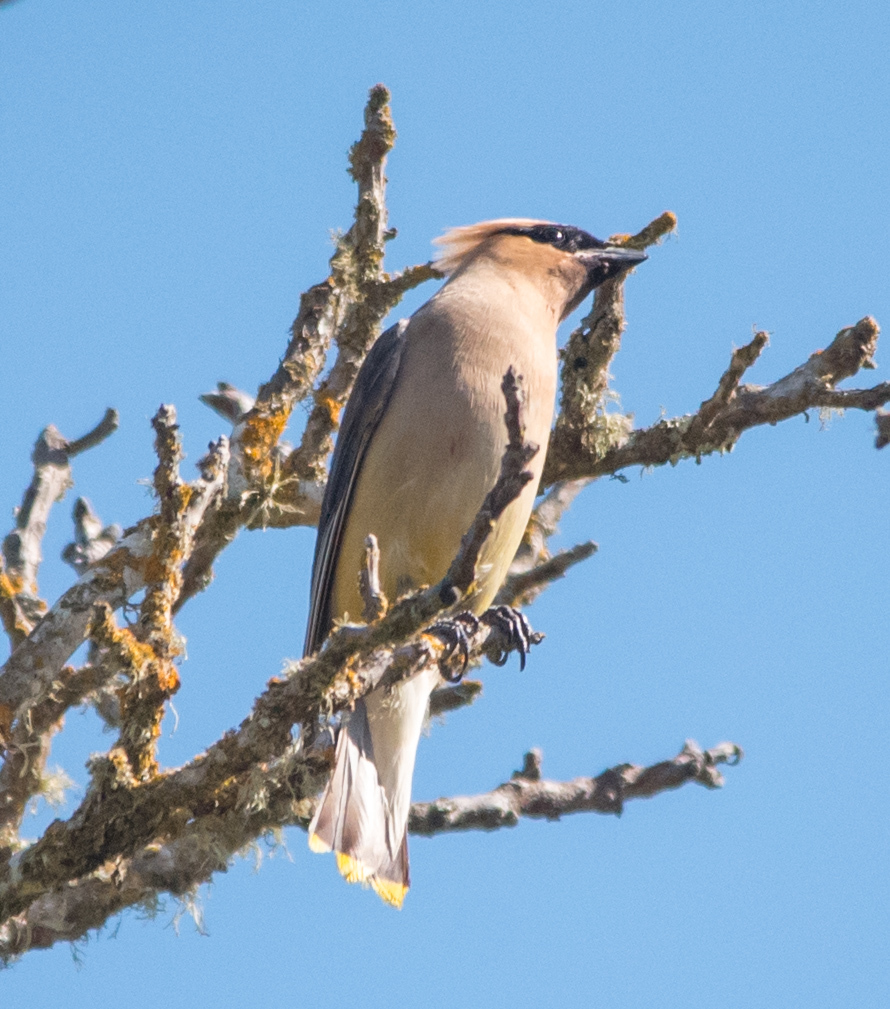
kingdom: Animalia
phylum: Chordata
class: Aves
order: Passeriformes
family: Bombycillidae
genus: Bombycilla
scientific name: Bombycilla cedrorum
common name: Cedar waxwing
